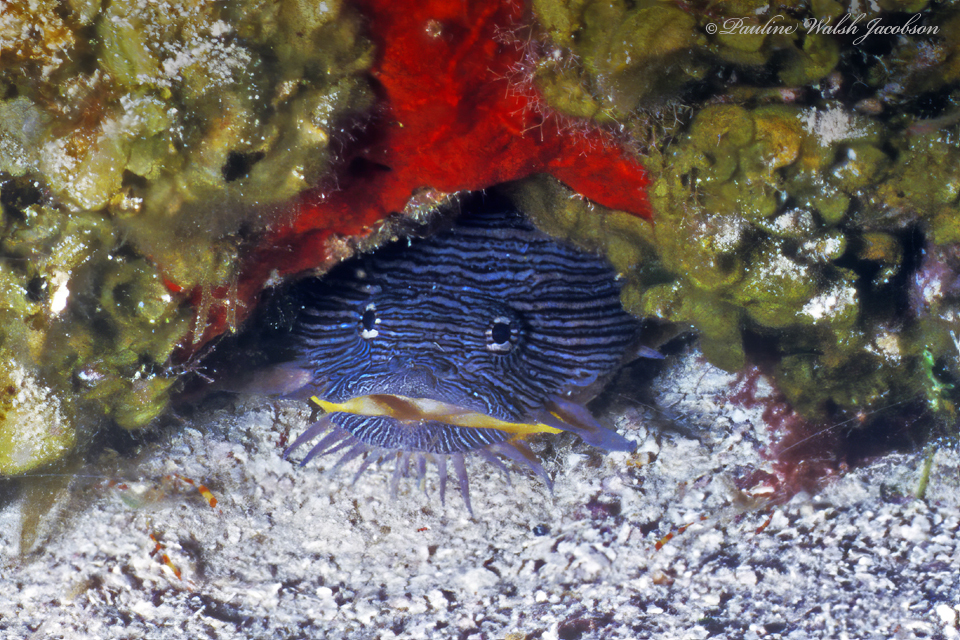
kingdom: Animalia
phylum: Chordata
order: Batrachoidiformes
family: Batrachoididae
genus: Sanopus
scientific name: Sanopus splendidus
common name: Splendid toadfish
